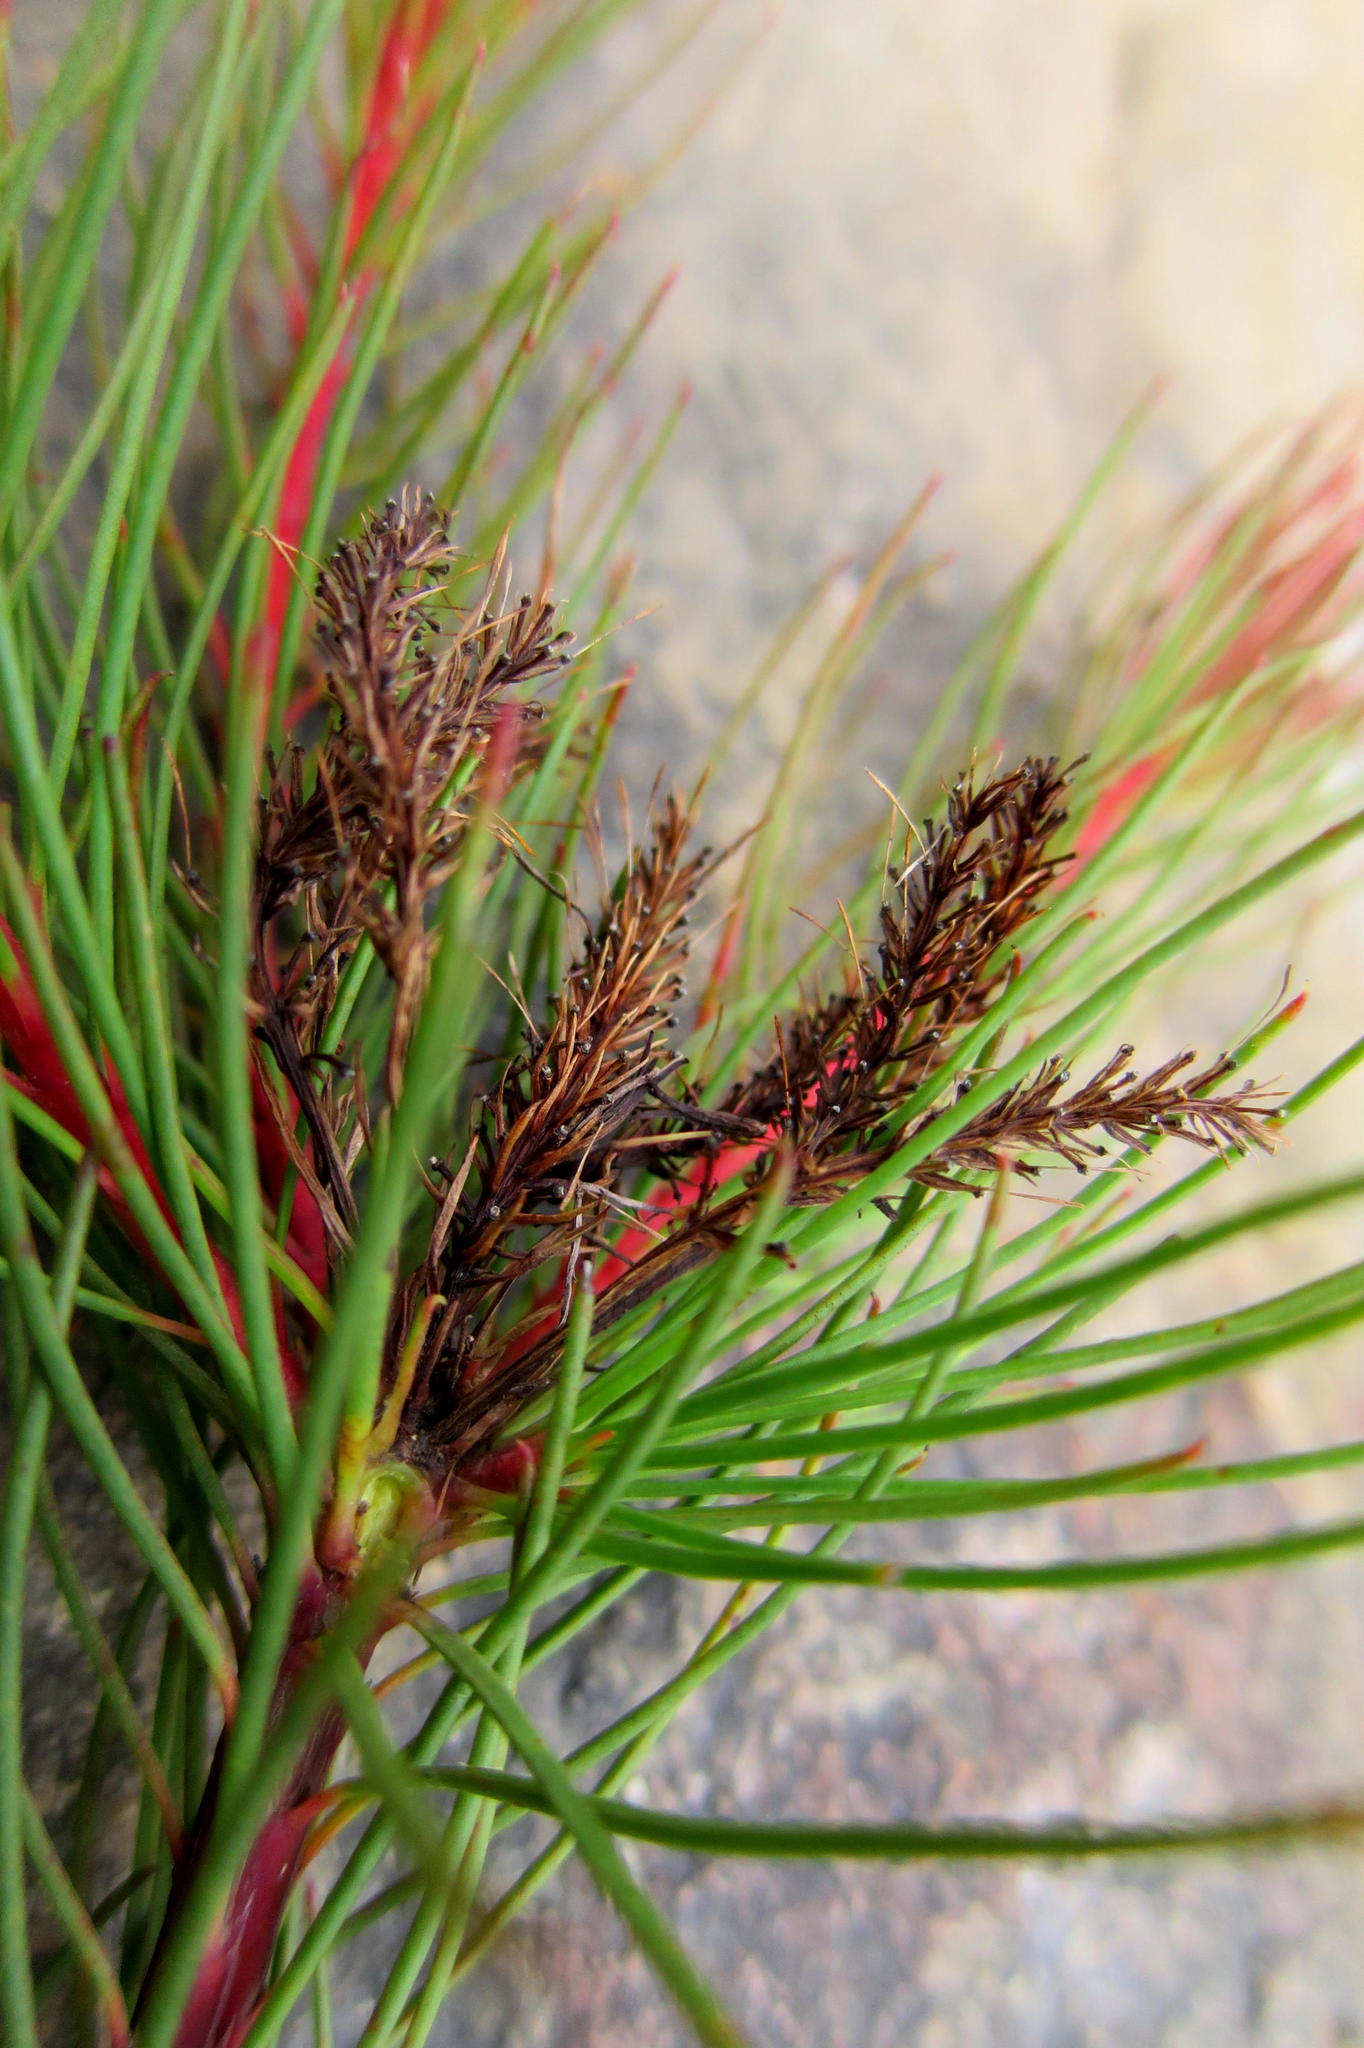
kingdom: Plantae
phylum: Tracheophyta
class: Magnoliopsida
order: Proteales
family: Proteaceae
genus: Aulax
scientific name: Aulax cancellata
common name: Channel-leaf featherbush
